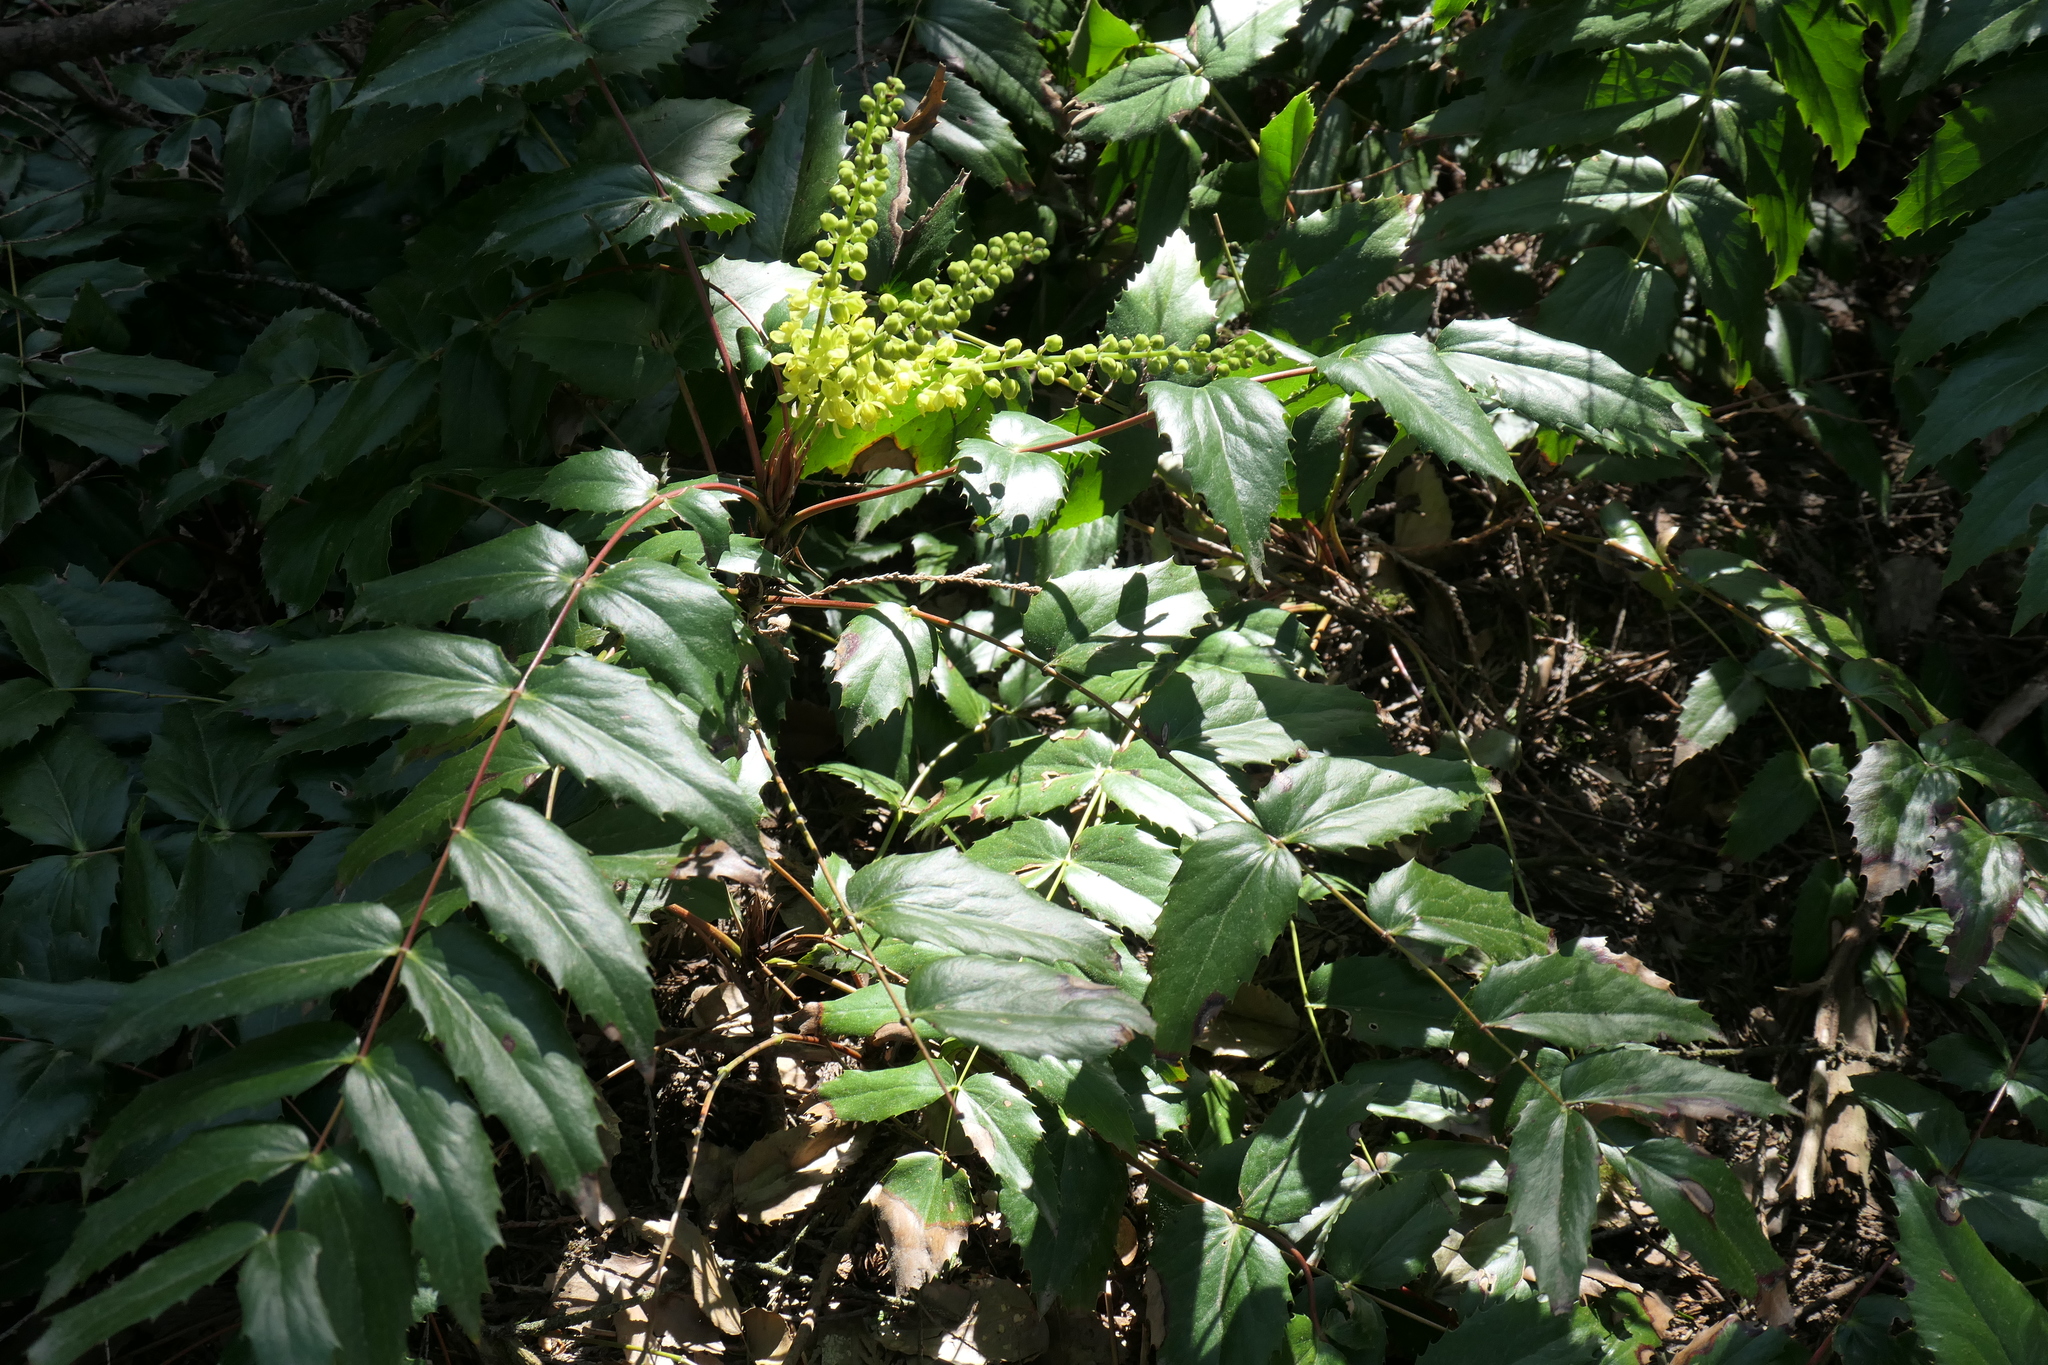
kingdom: Plantae
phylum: Tracheophyta
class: Magnoliopsida
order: Ranunculales
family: Berberidaceae
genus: Mahonia
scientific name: Mahonia nervosa
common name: Cascade oregon-grape
